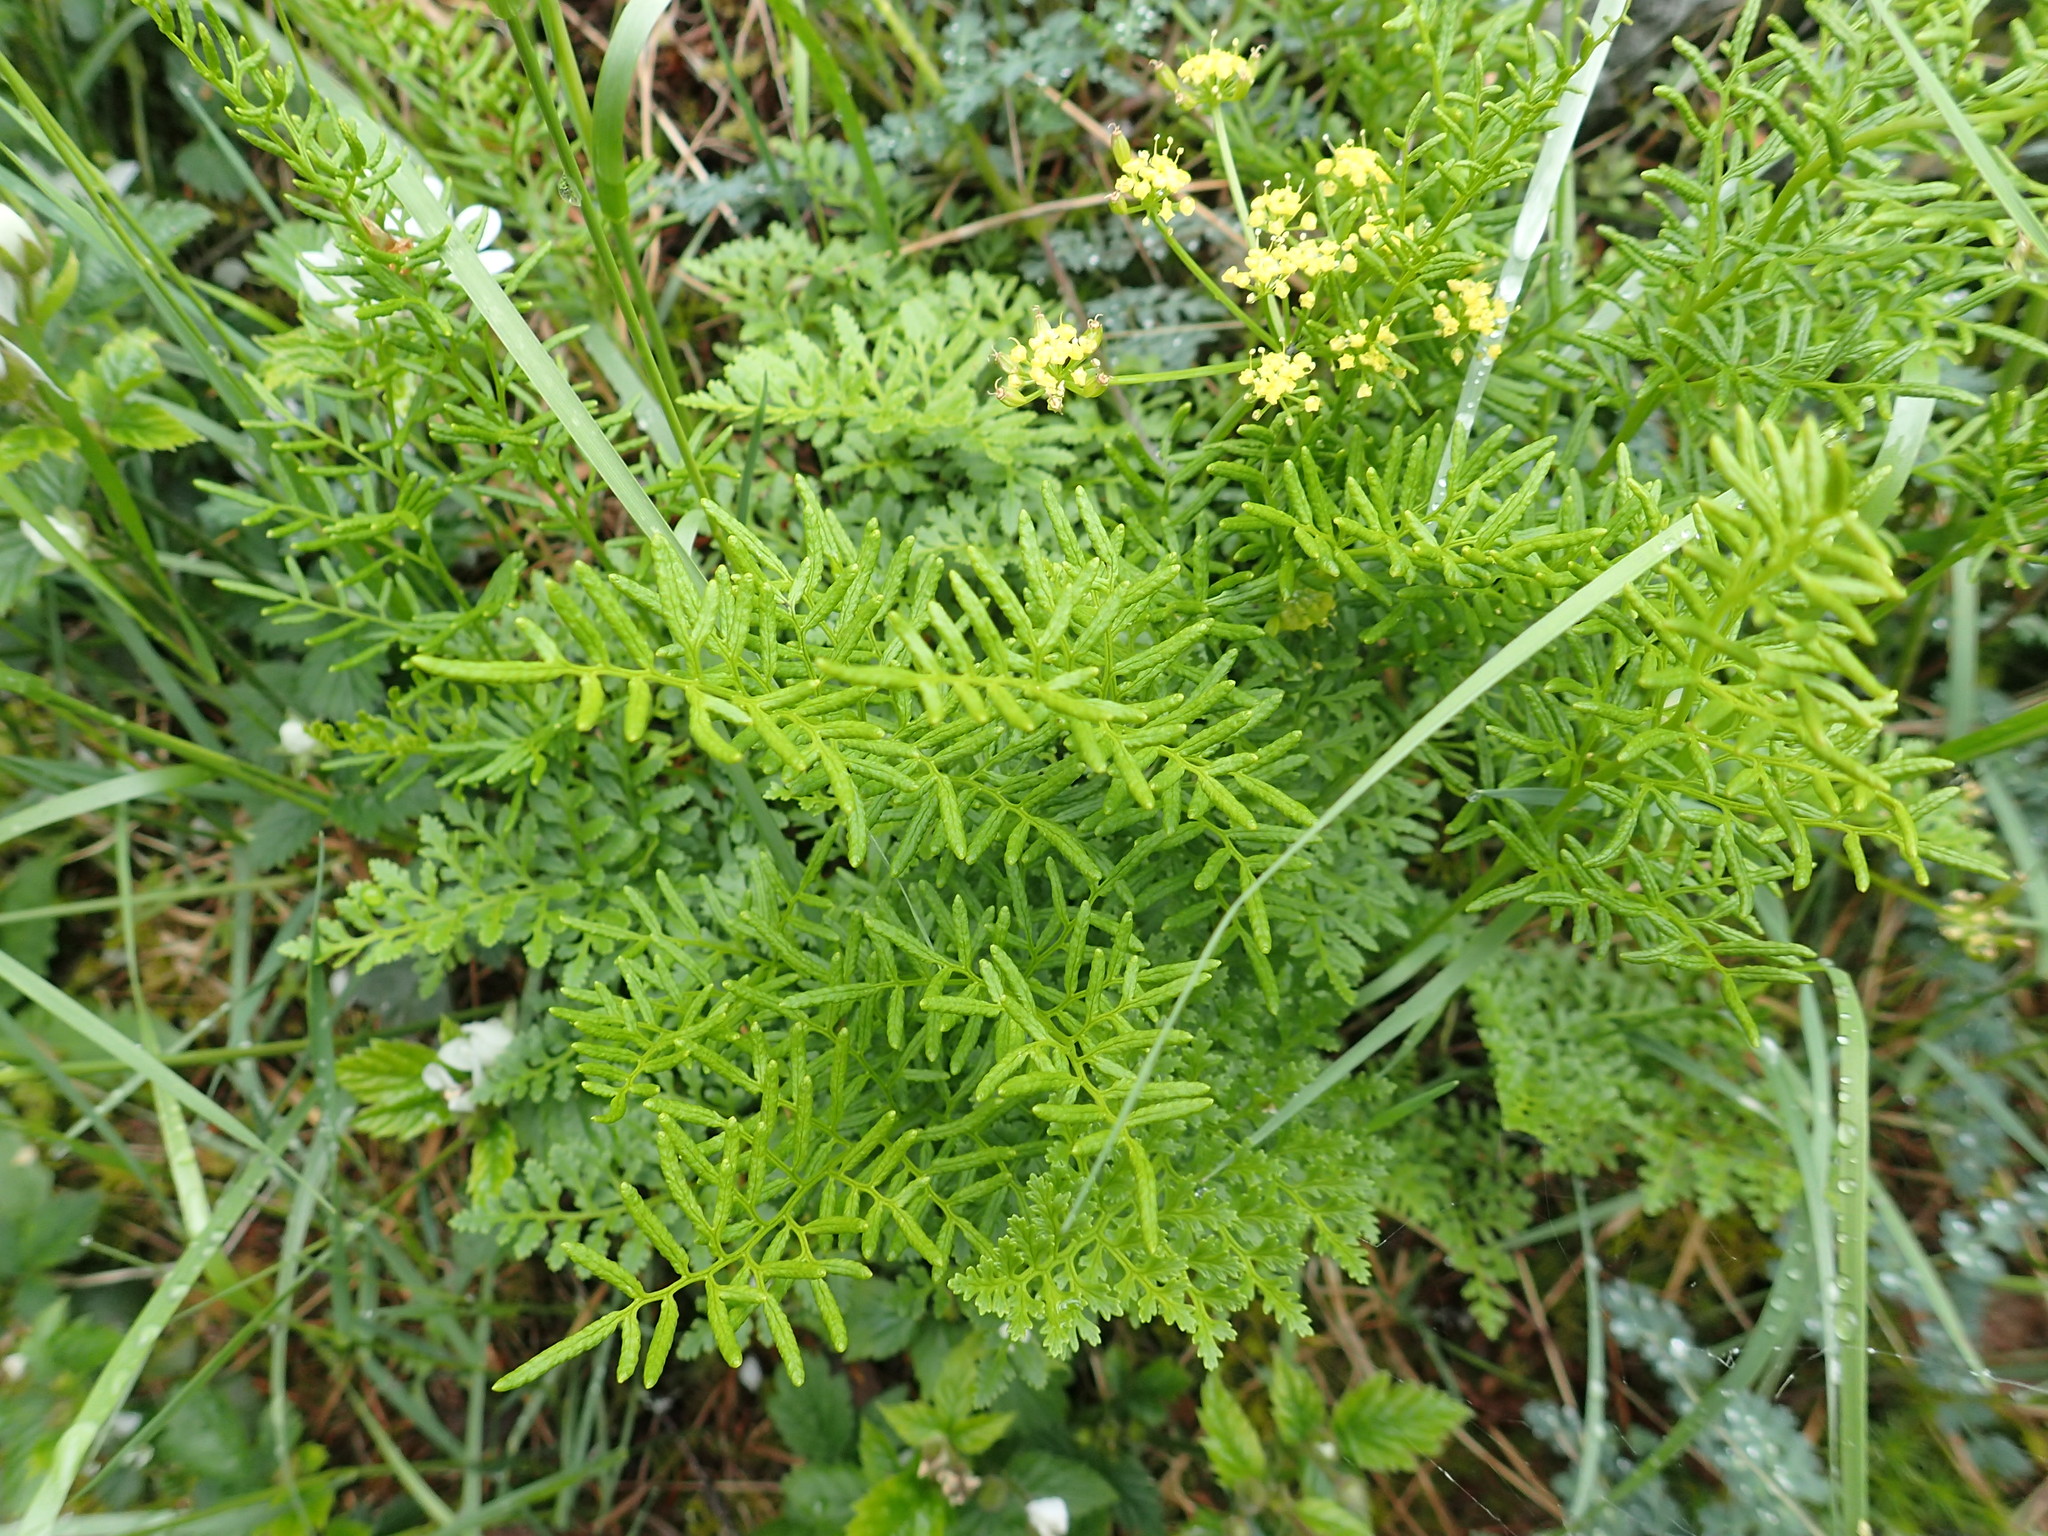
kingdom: Plantae
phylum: Tracheophyta
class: Polypodiopsida
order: Polypodiales
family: Pteridaceae
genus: Cryptogramma
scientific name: Cryptogramma acrostichoides
